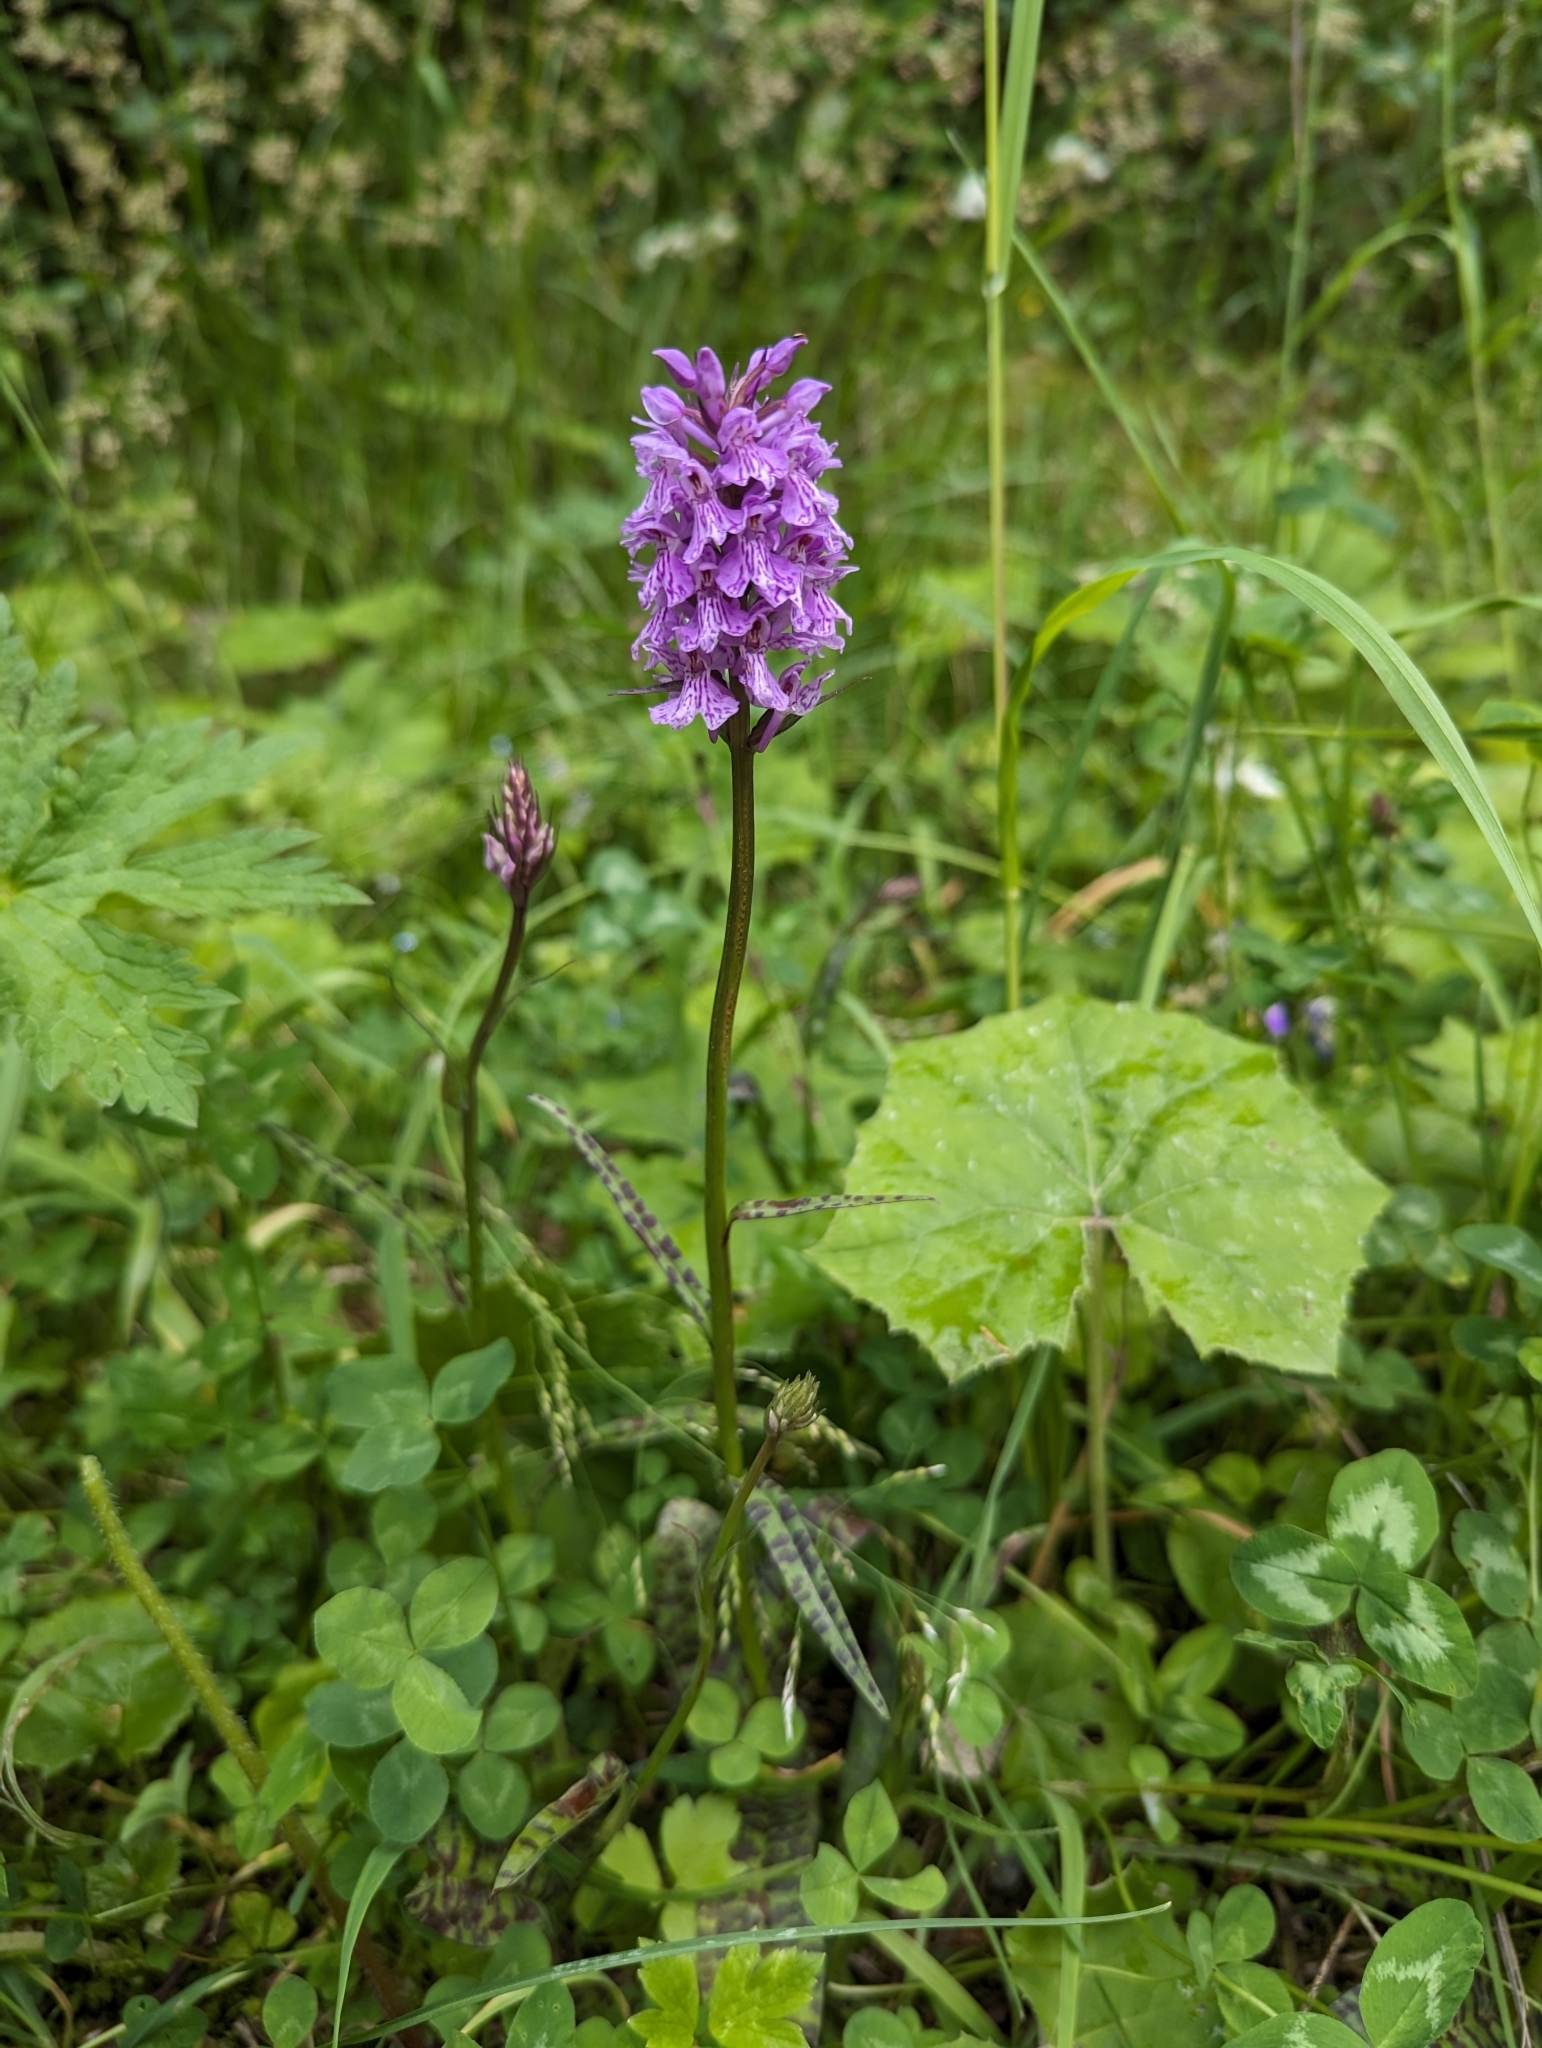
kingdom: Plantae
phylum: Tracheophyta
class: Liliopsida
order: Asparagales
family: Orchidaceae
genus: Dactylorhiza
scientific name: Dactylorhiza maculata
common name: Heath spotted-orchid
